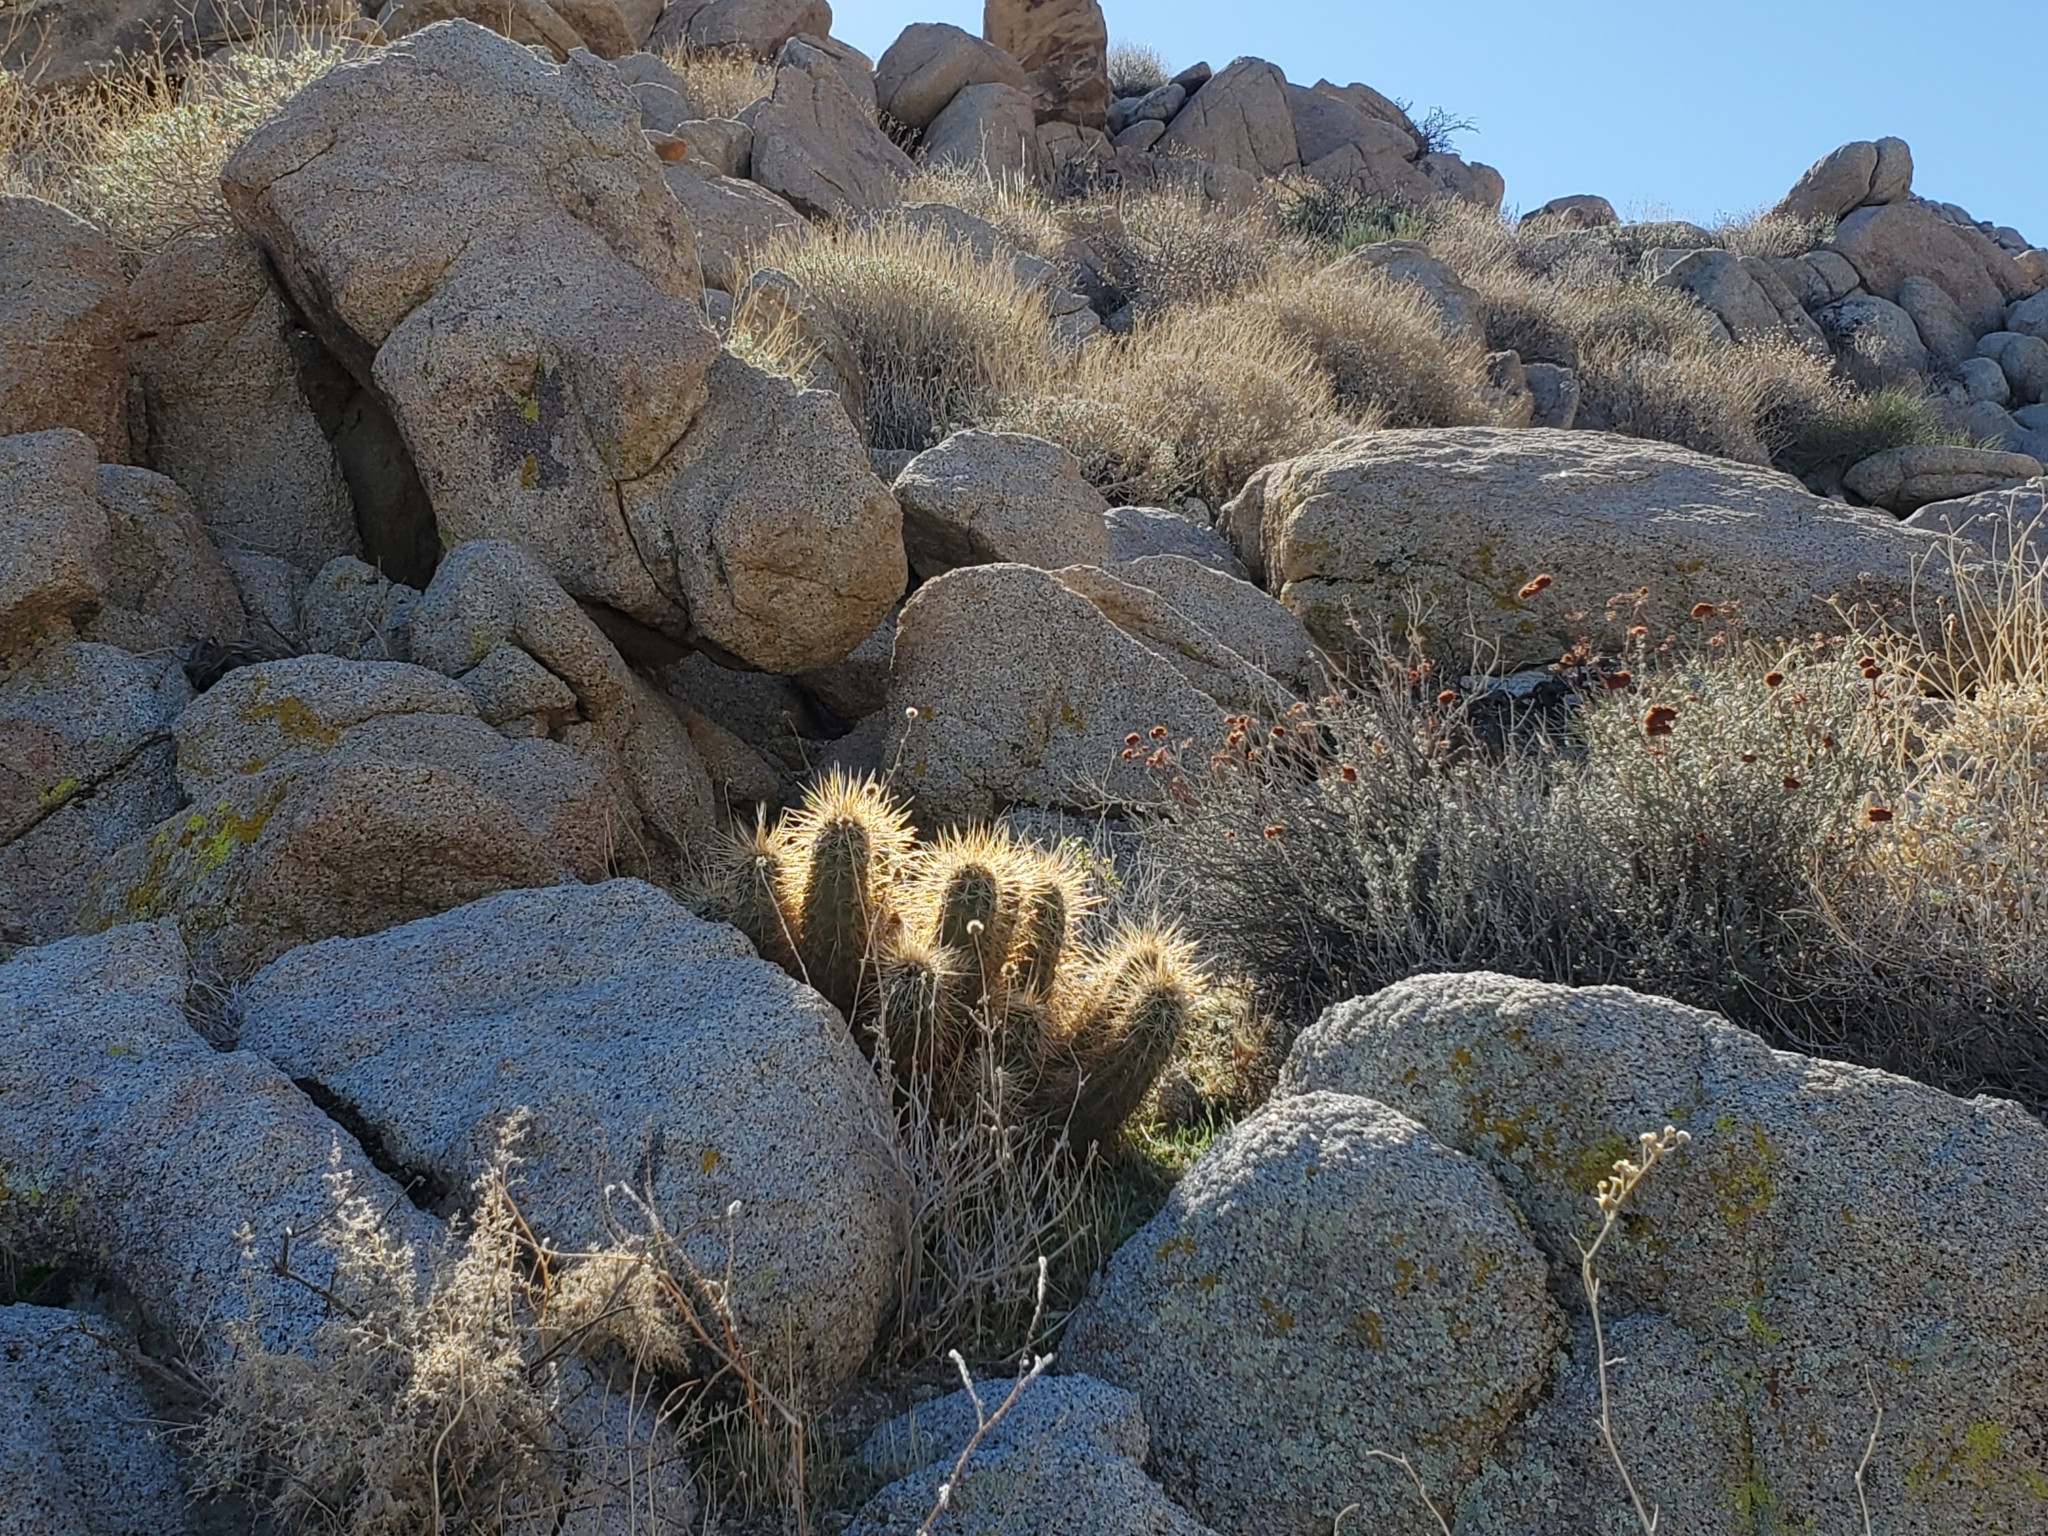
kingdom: Plantae
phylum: Tracheophyta
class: Magnoliopsida
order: Caryophyllales
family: Cactaceae
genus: Echinocereus
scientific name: Echinocereus engelmannii
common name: Engelmann's hedgehog cactus
